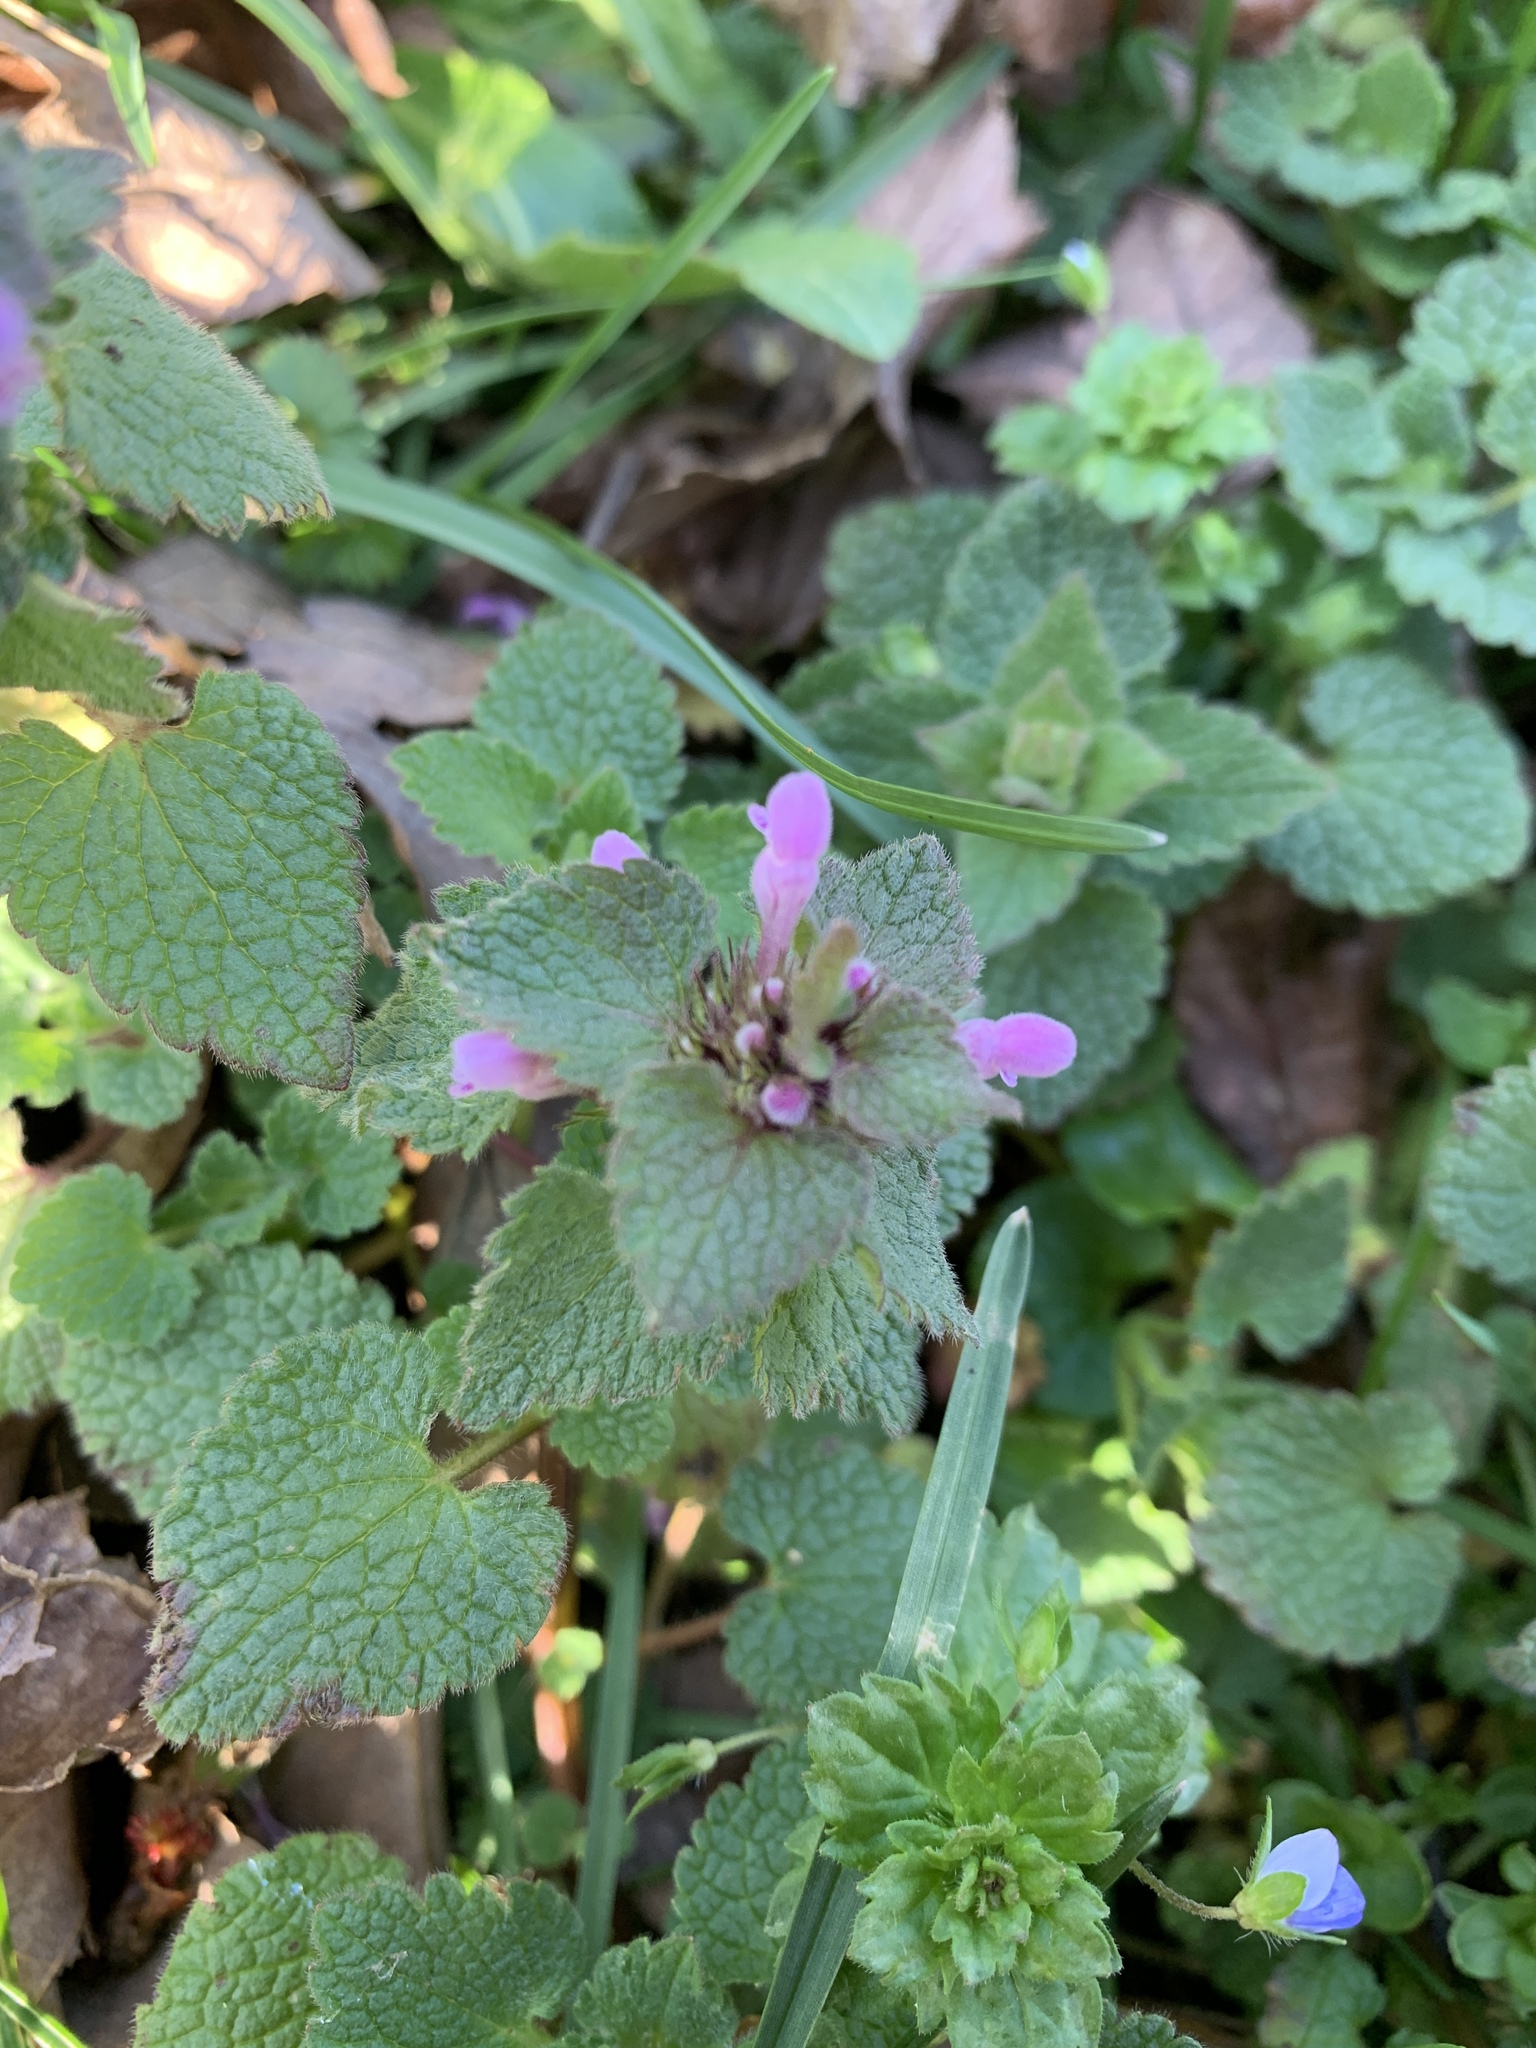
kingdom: Plantae
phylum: Tracheophyta
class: Magnoliopsida
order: Lamiales
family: Lamiaceae
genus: Lamium
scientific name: Lamium purpureum
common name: Red dead-nettle
